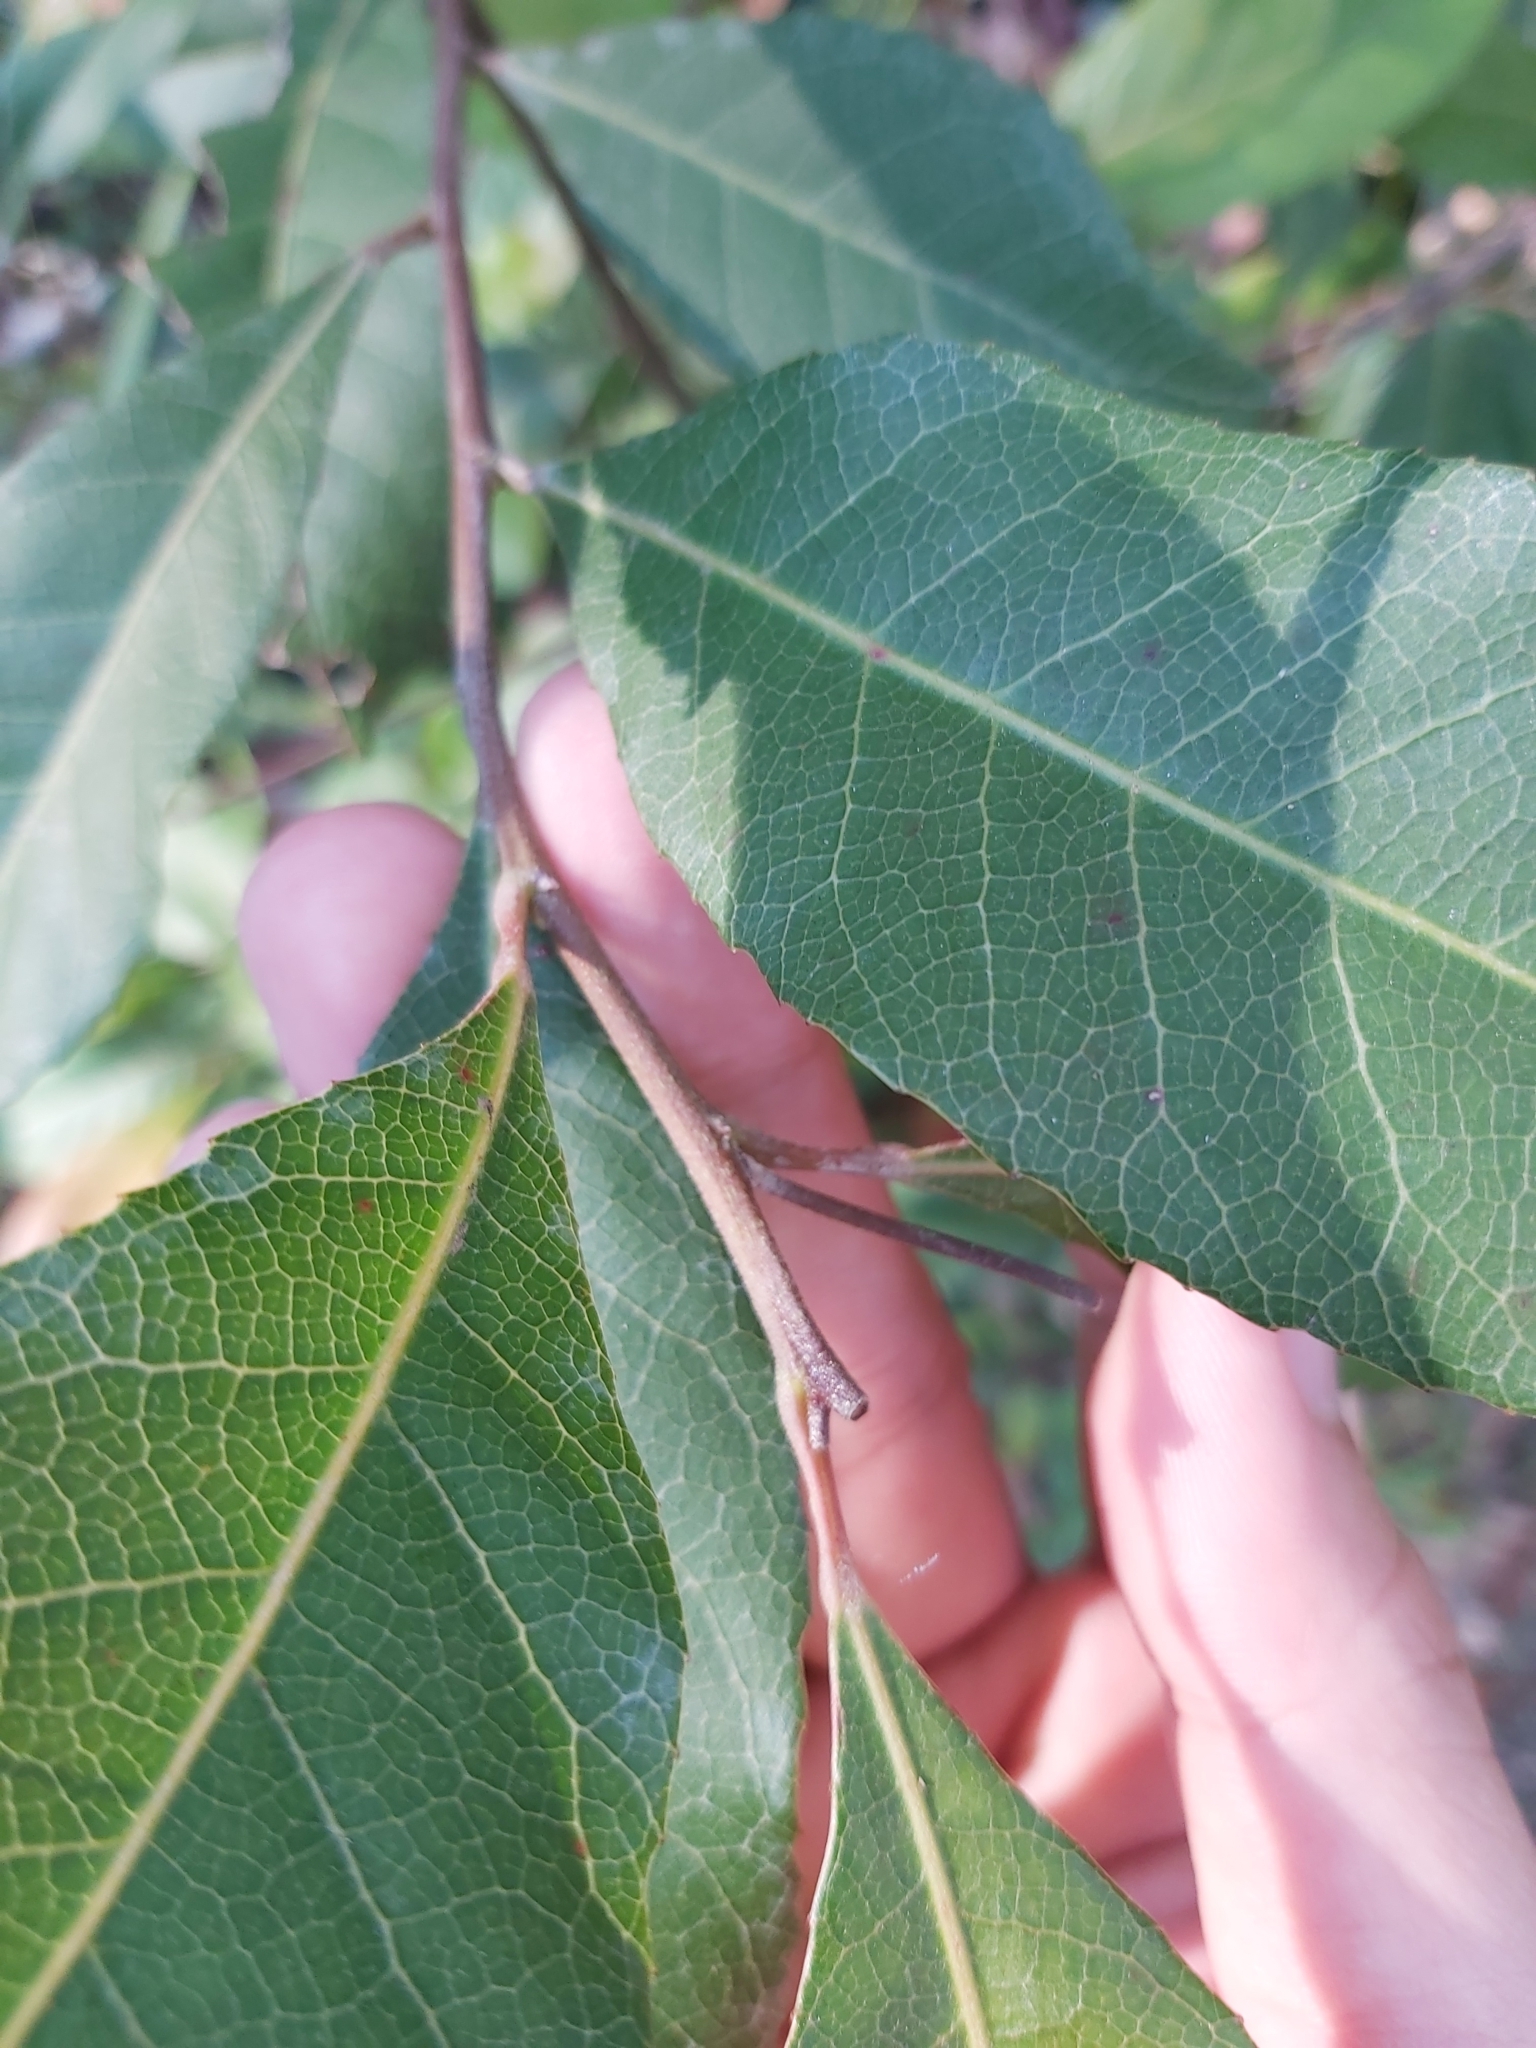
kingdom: Plantae
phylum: Tracheophyta
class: Magnoliopsida
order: Oxalidales
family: Elaeocarpaceae
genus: Elaeocarpus
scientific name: Elaeocarpus reticulatus
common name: Ash quandong
